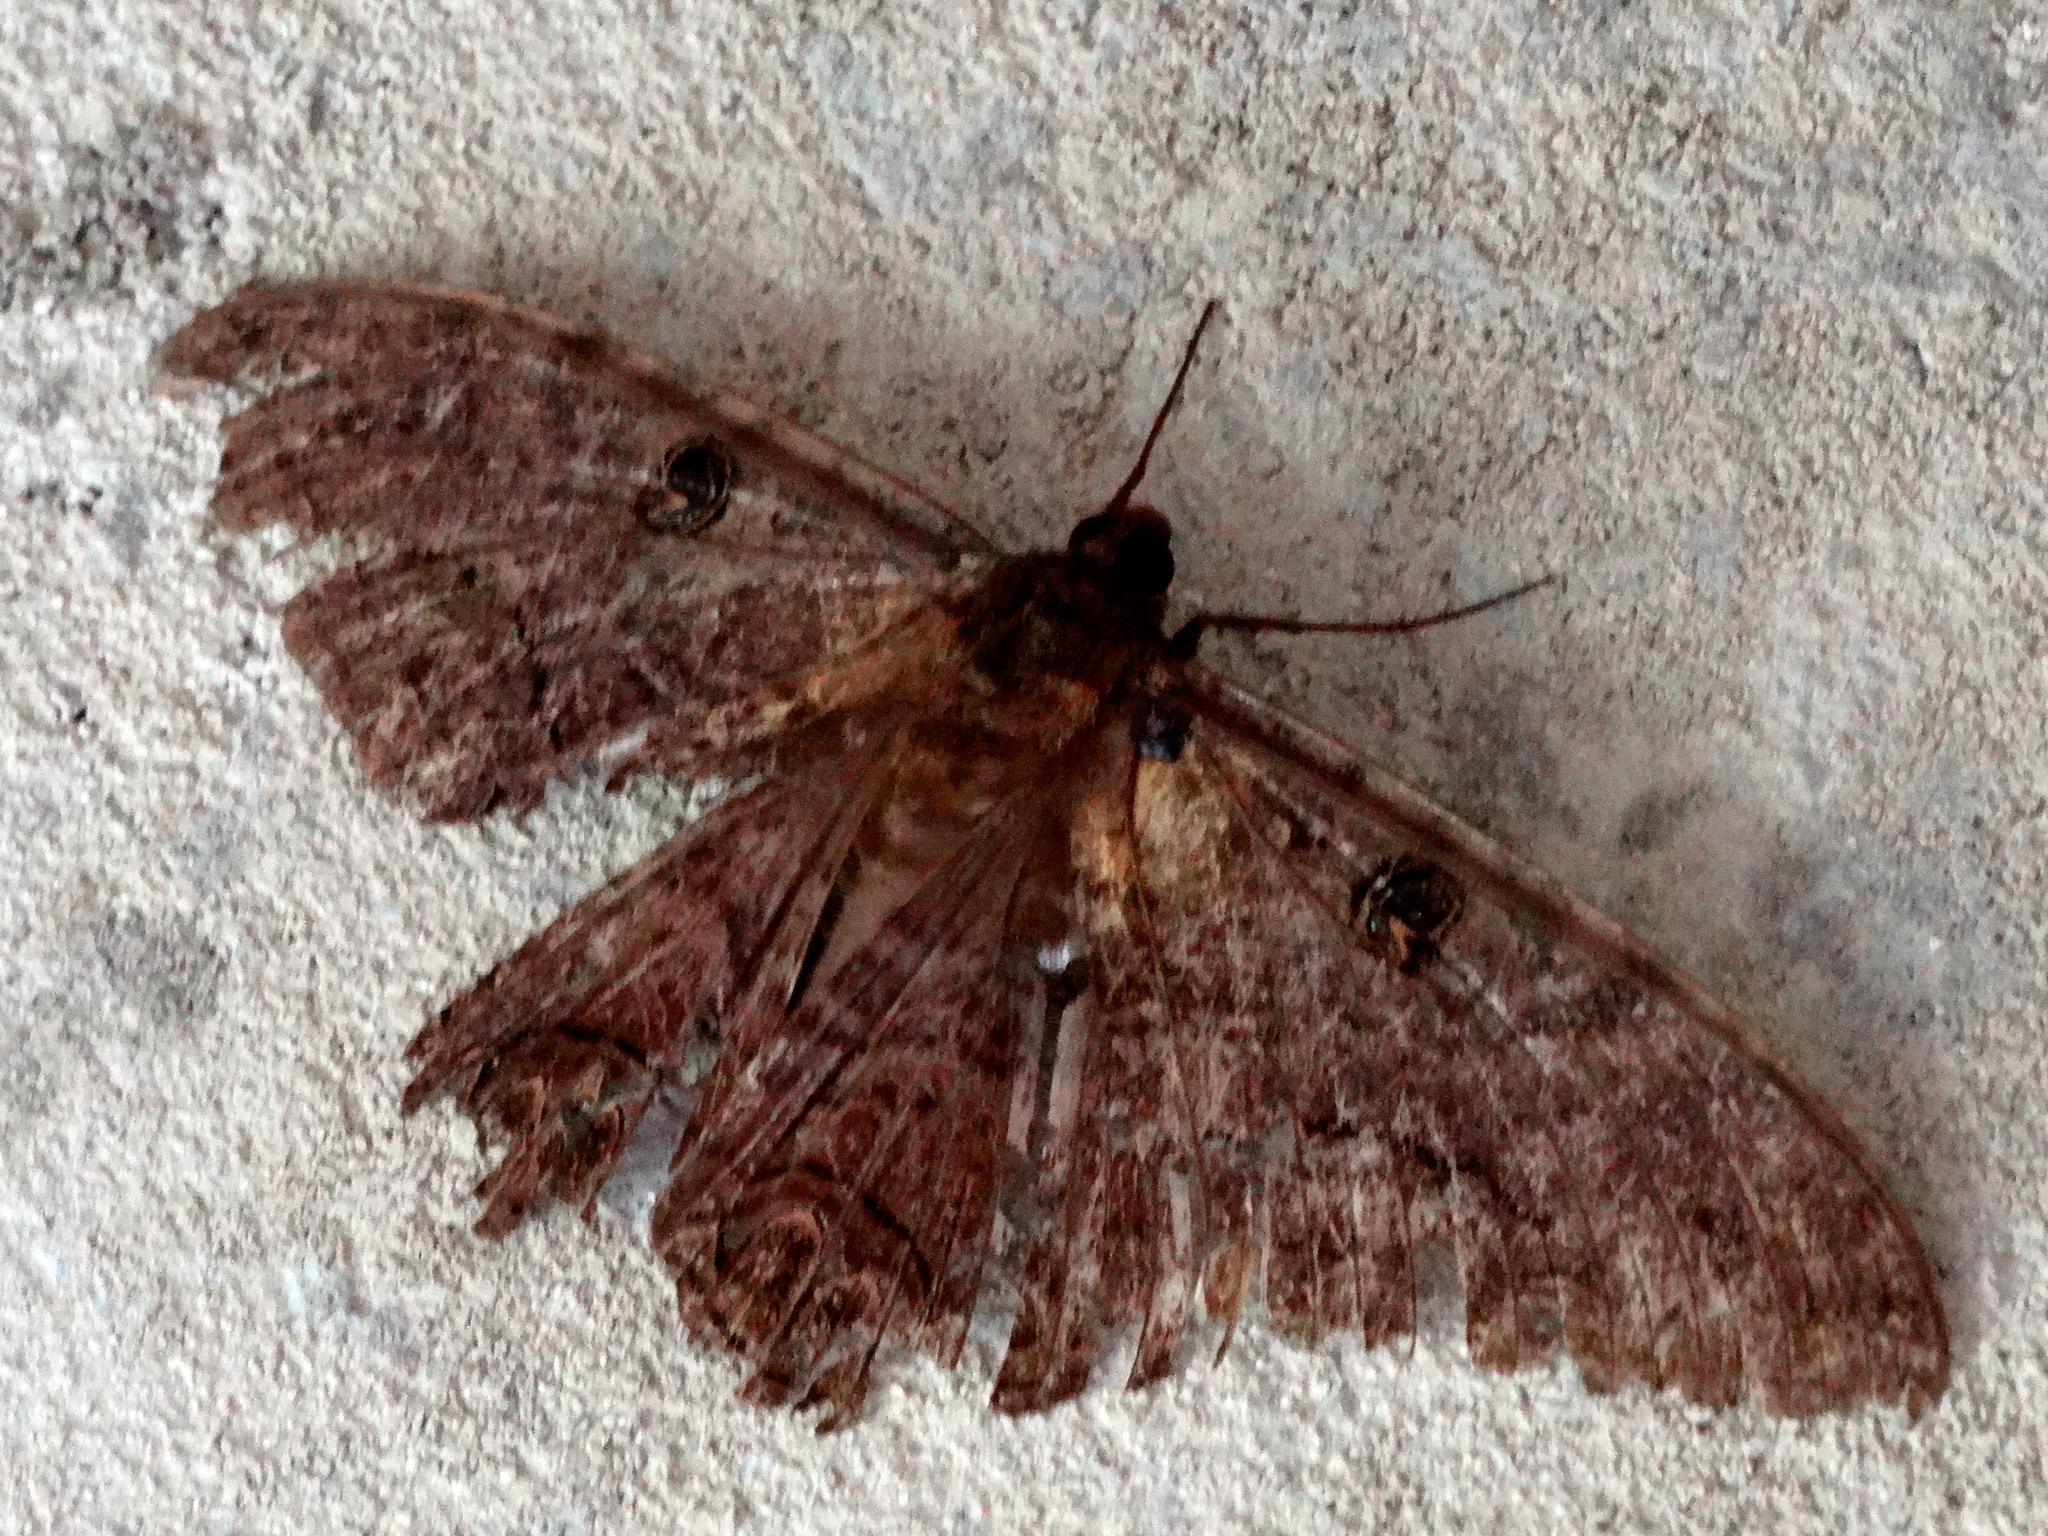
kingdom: Animalia
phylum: Arthropoda
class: Insecta
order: Lepidoptera
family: Erebidae
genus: Ascalapha
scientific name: Ascalapha odorata
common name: Black witch
